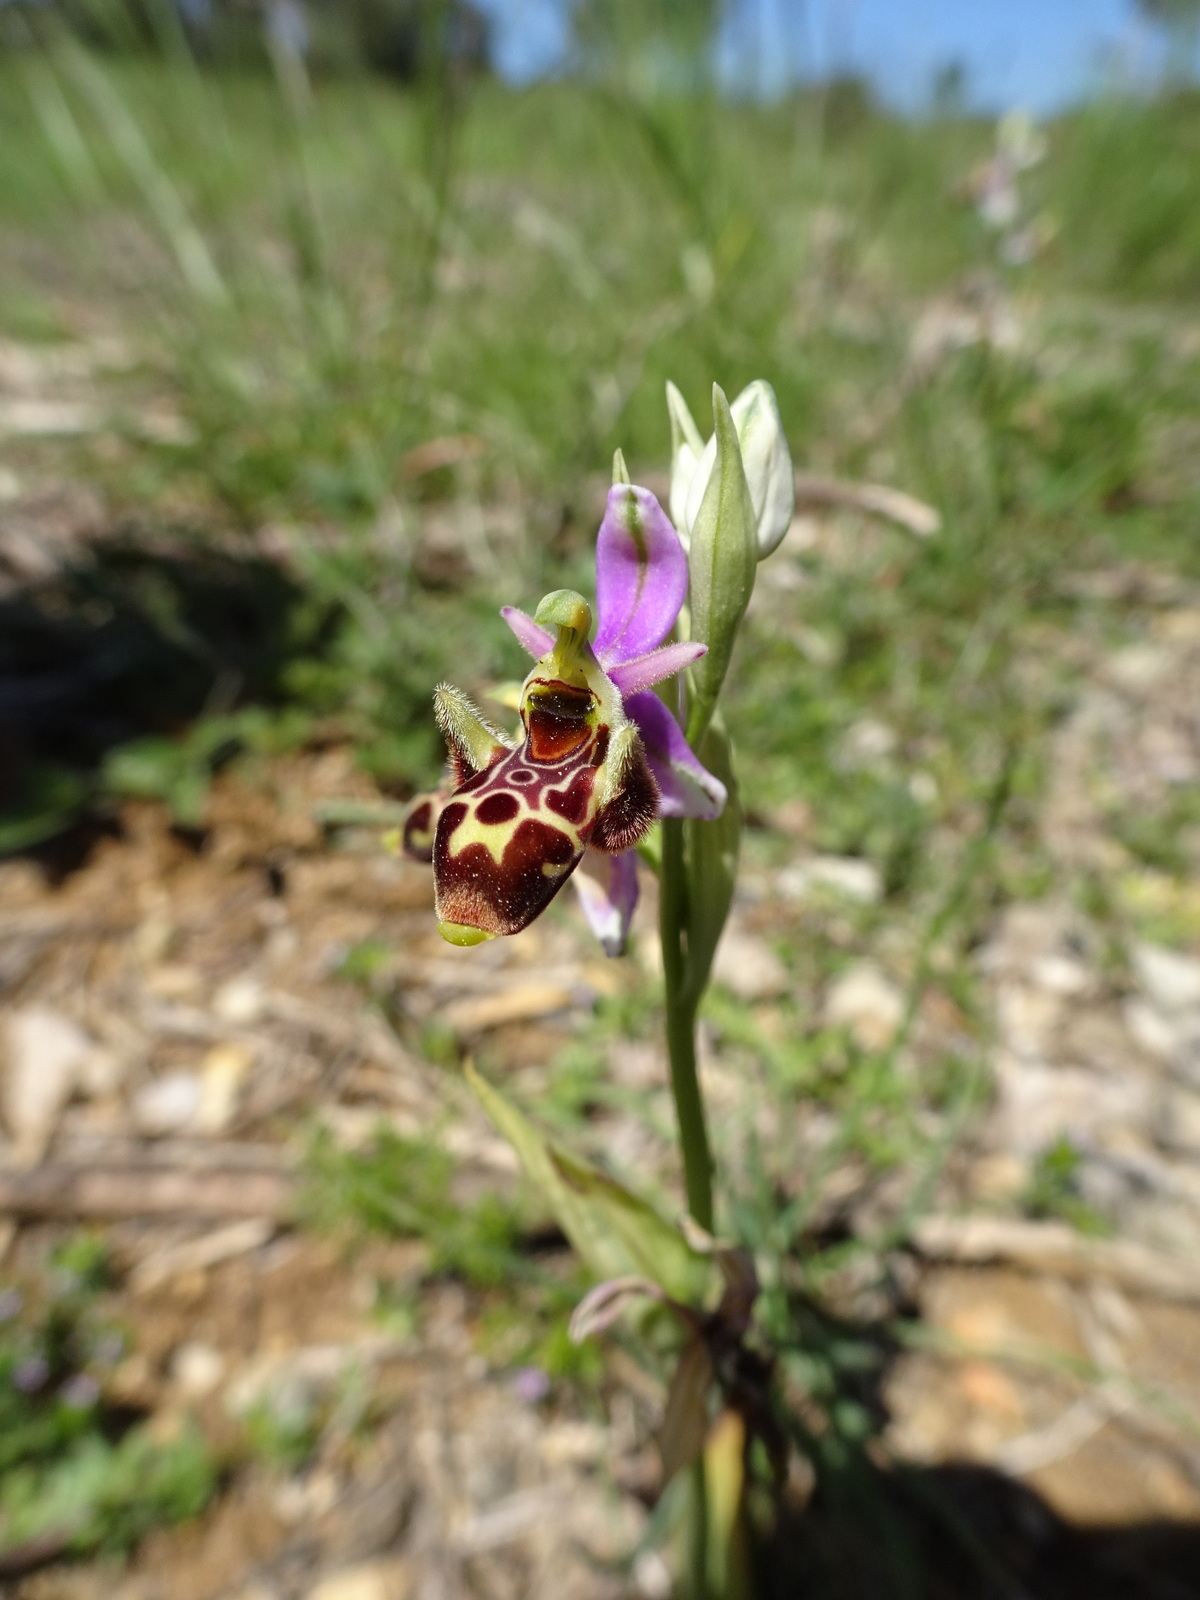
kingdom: Plantae
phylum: Tracheophyta
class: Liliopsida
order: Asparagales
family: Orchidaceae
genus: Ophrys
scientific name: Ophrys scolopax
